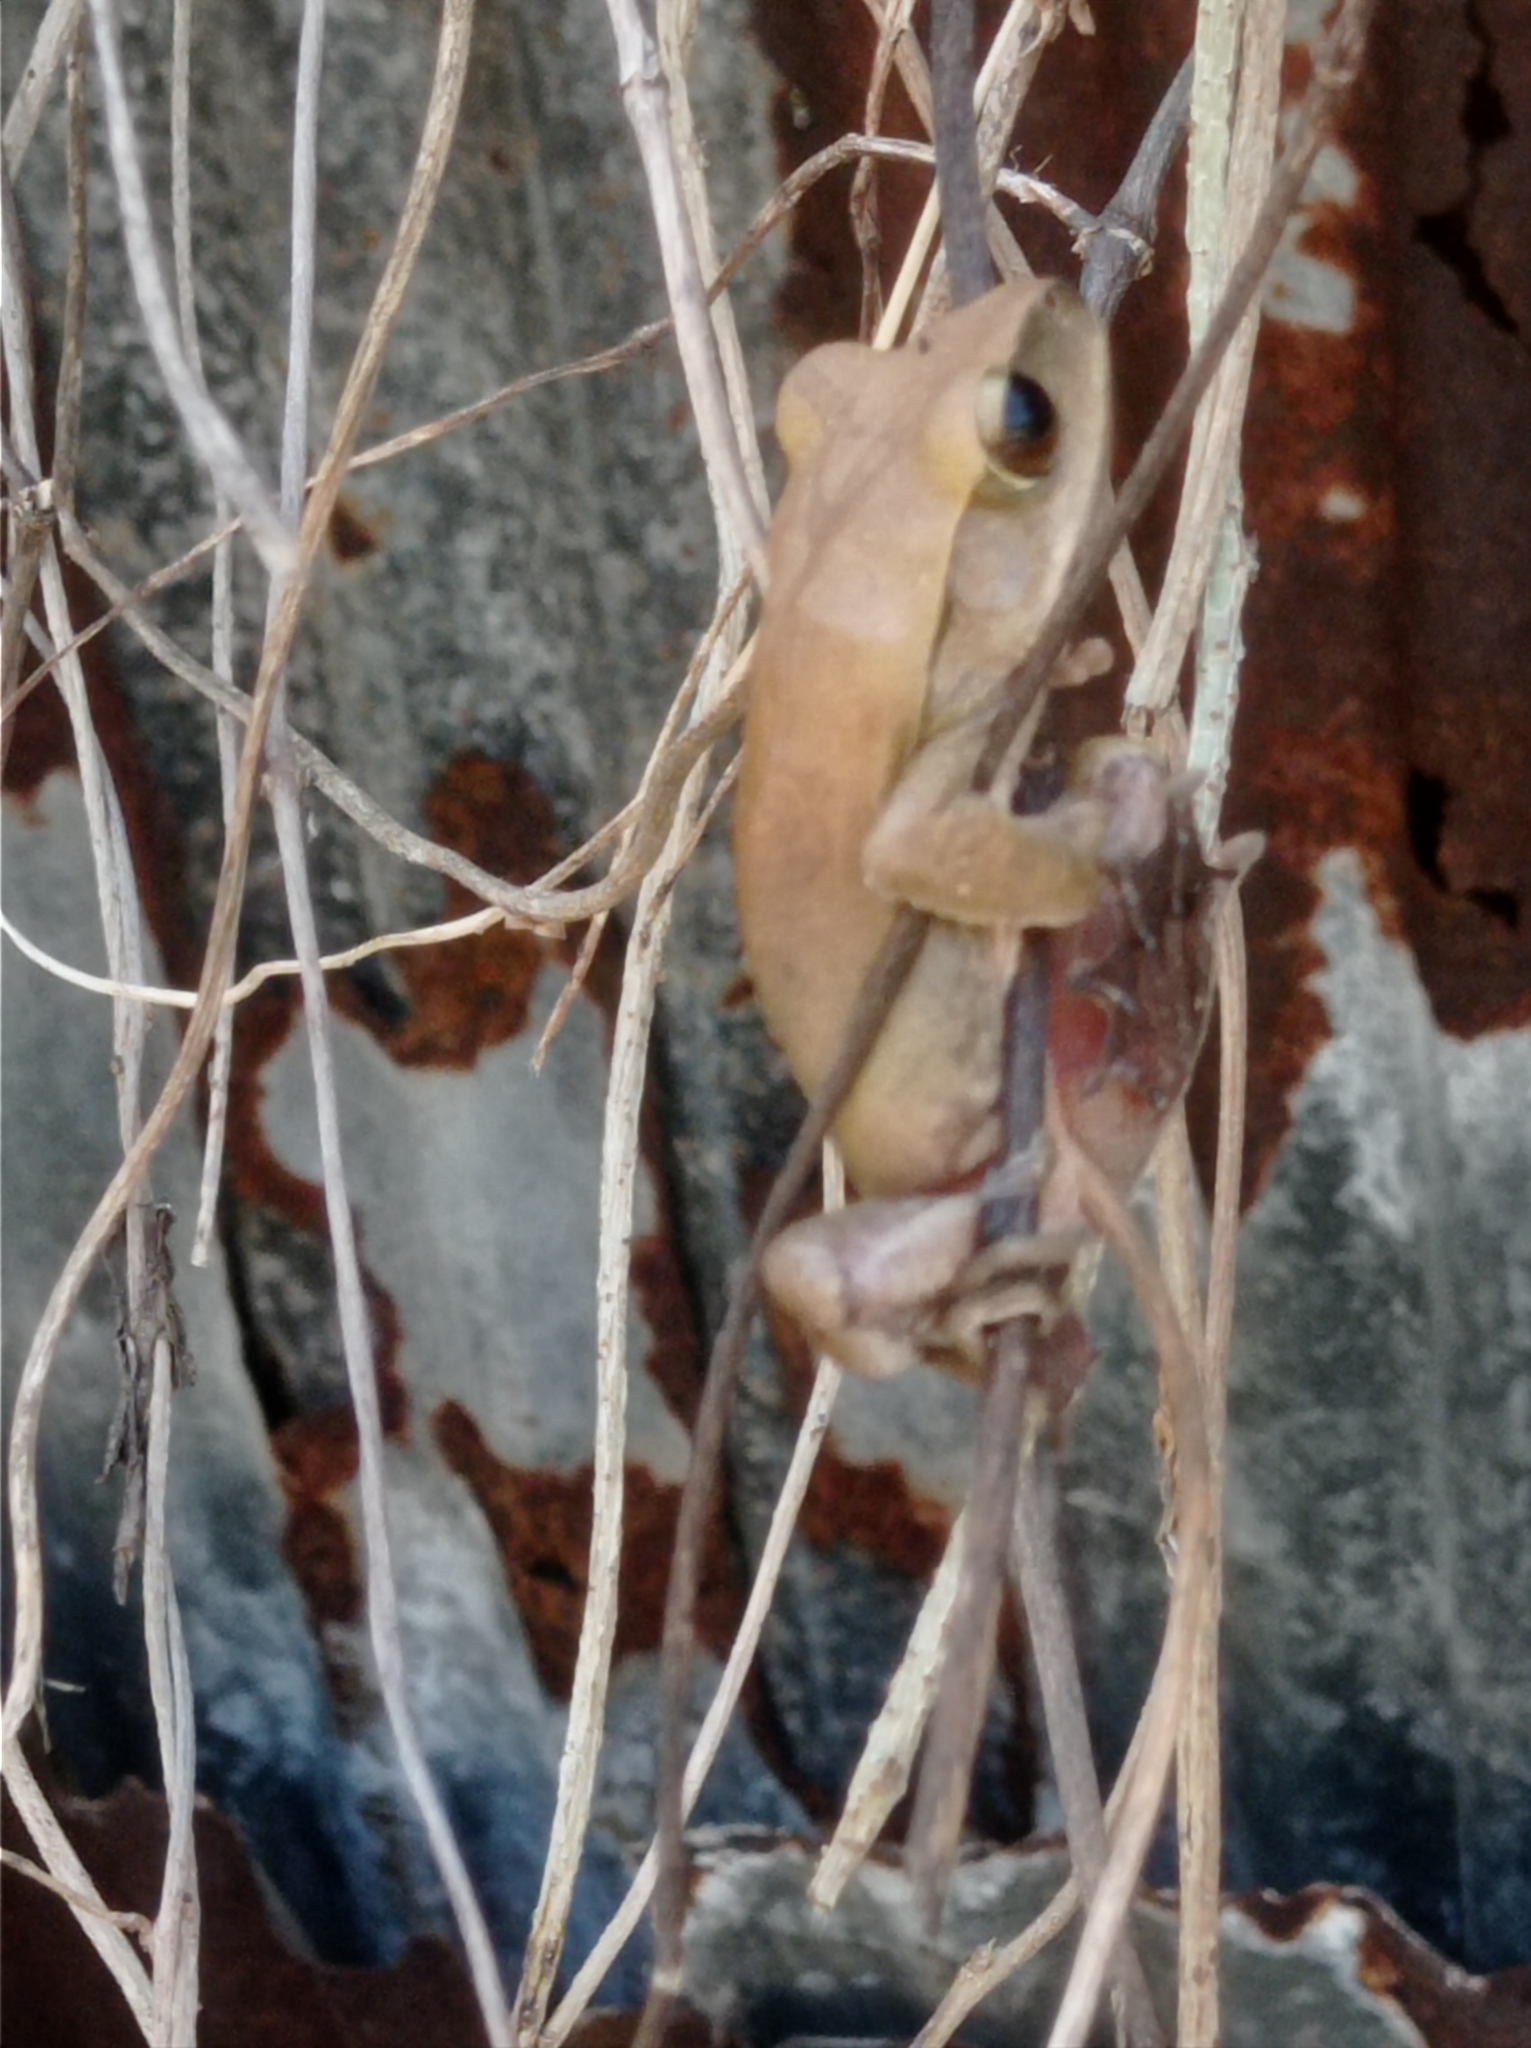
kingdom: Animalia
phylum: Chordata
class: Amphibia
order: Anura
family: Rhacophoridae
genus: Polypedates
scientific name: Polypedates megacephalus
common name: Hong kong whipping frog
